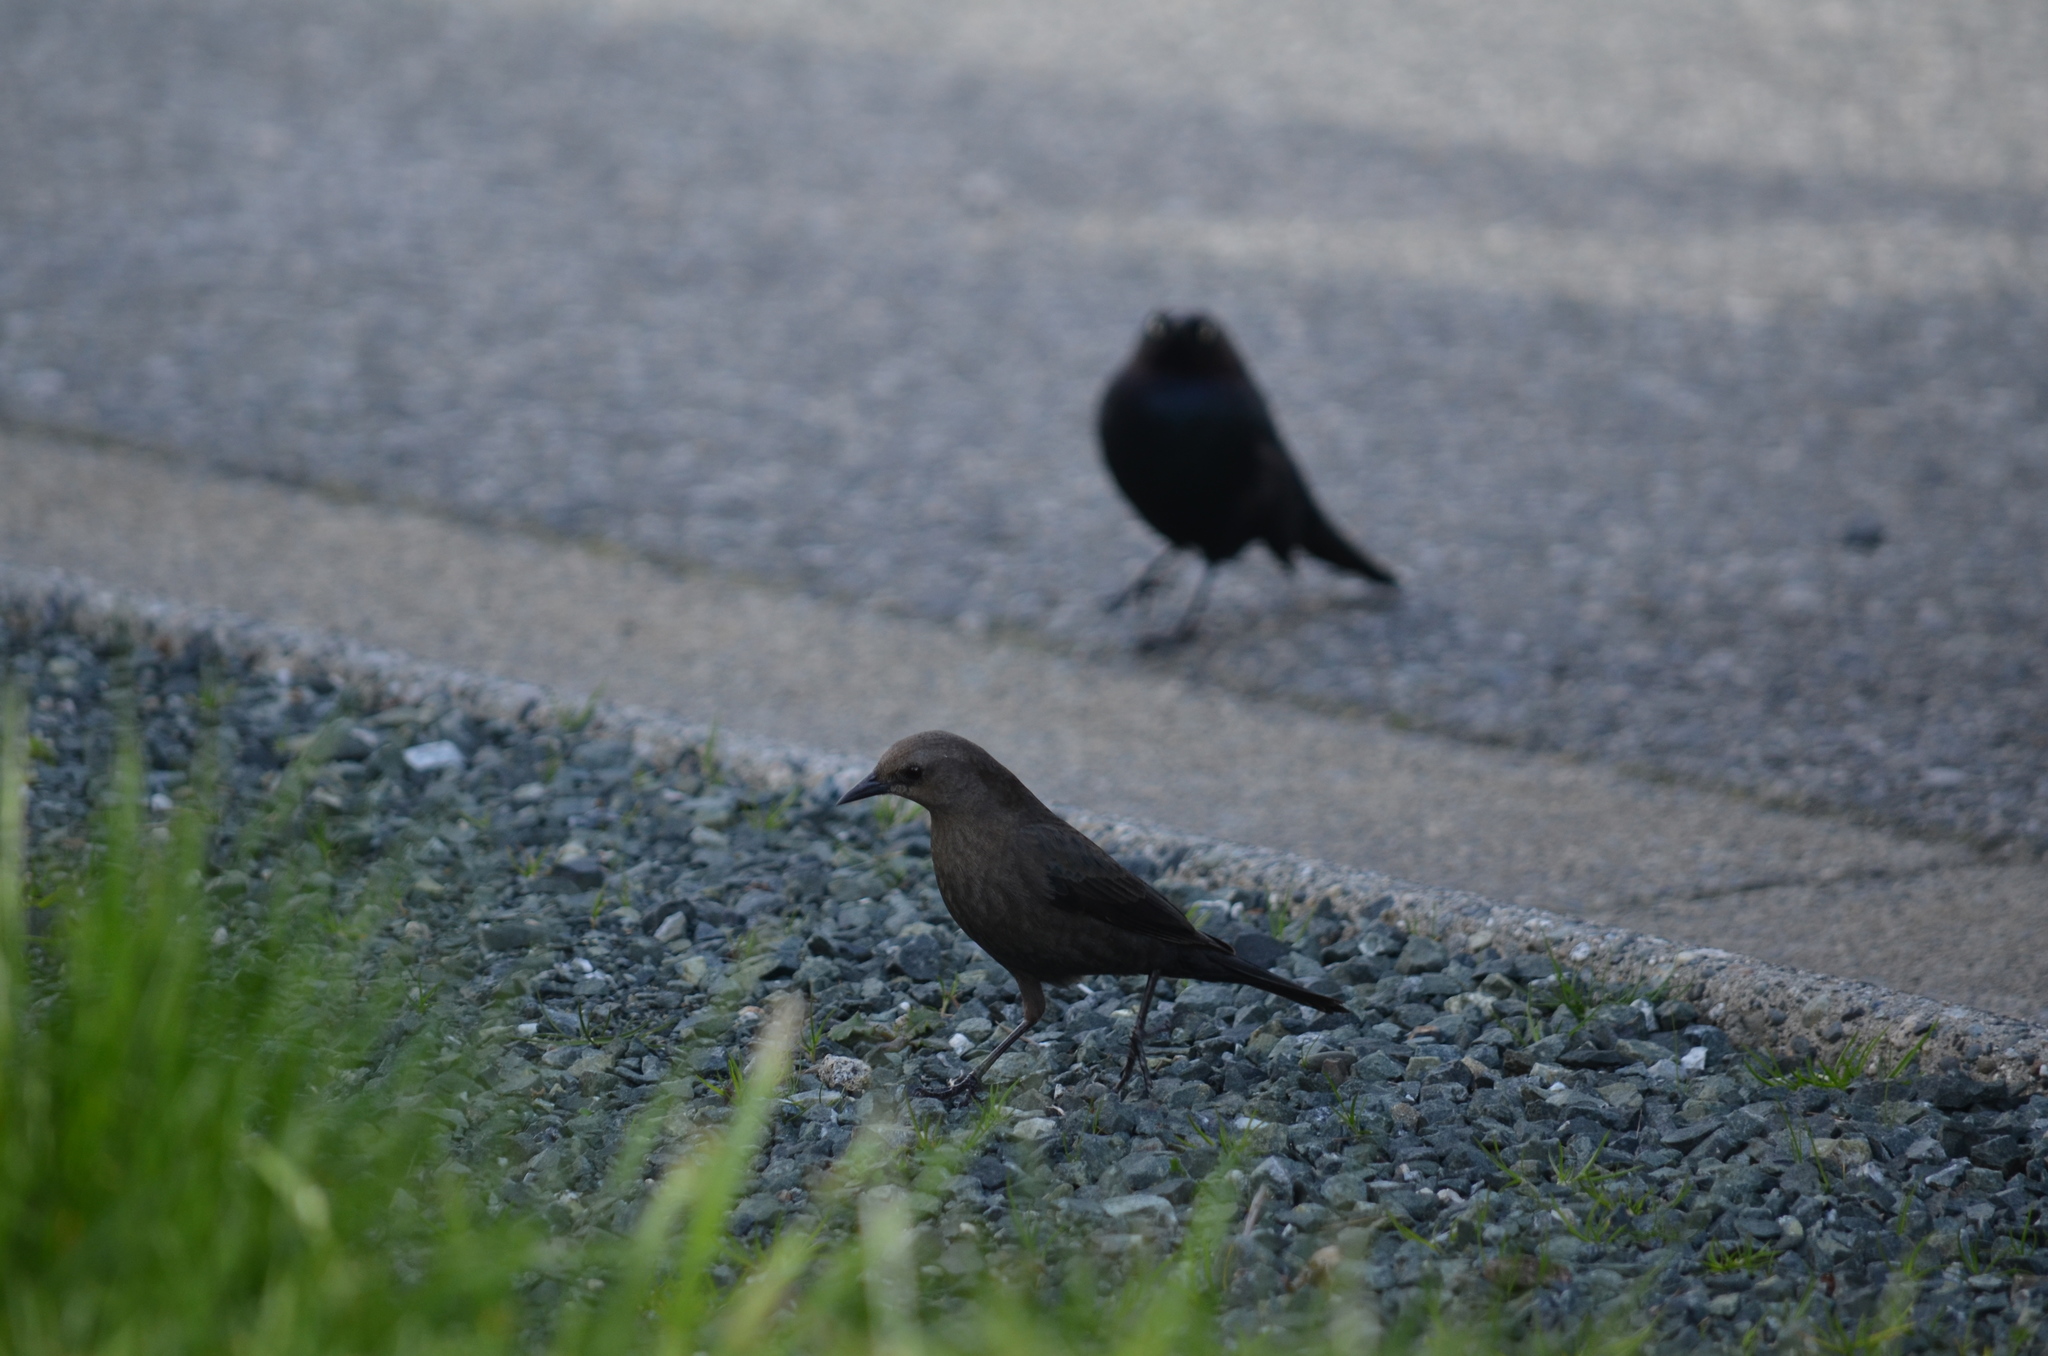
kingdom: Animalia
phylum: Chordata
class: Aves
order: Passeriformes
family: Icteridae
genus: Euphagus
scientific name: Euphagus cyanocephalus
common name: Brewer's blackbird
